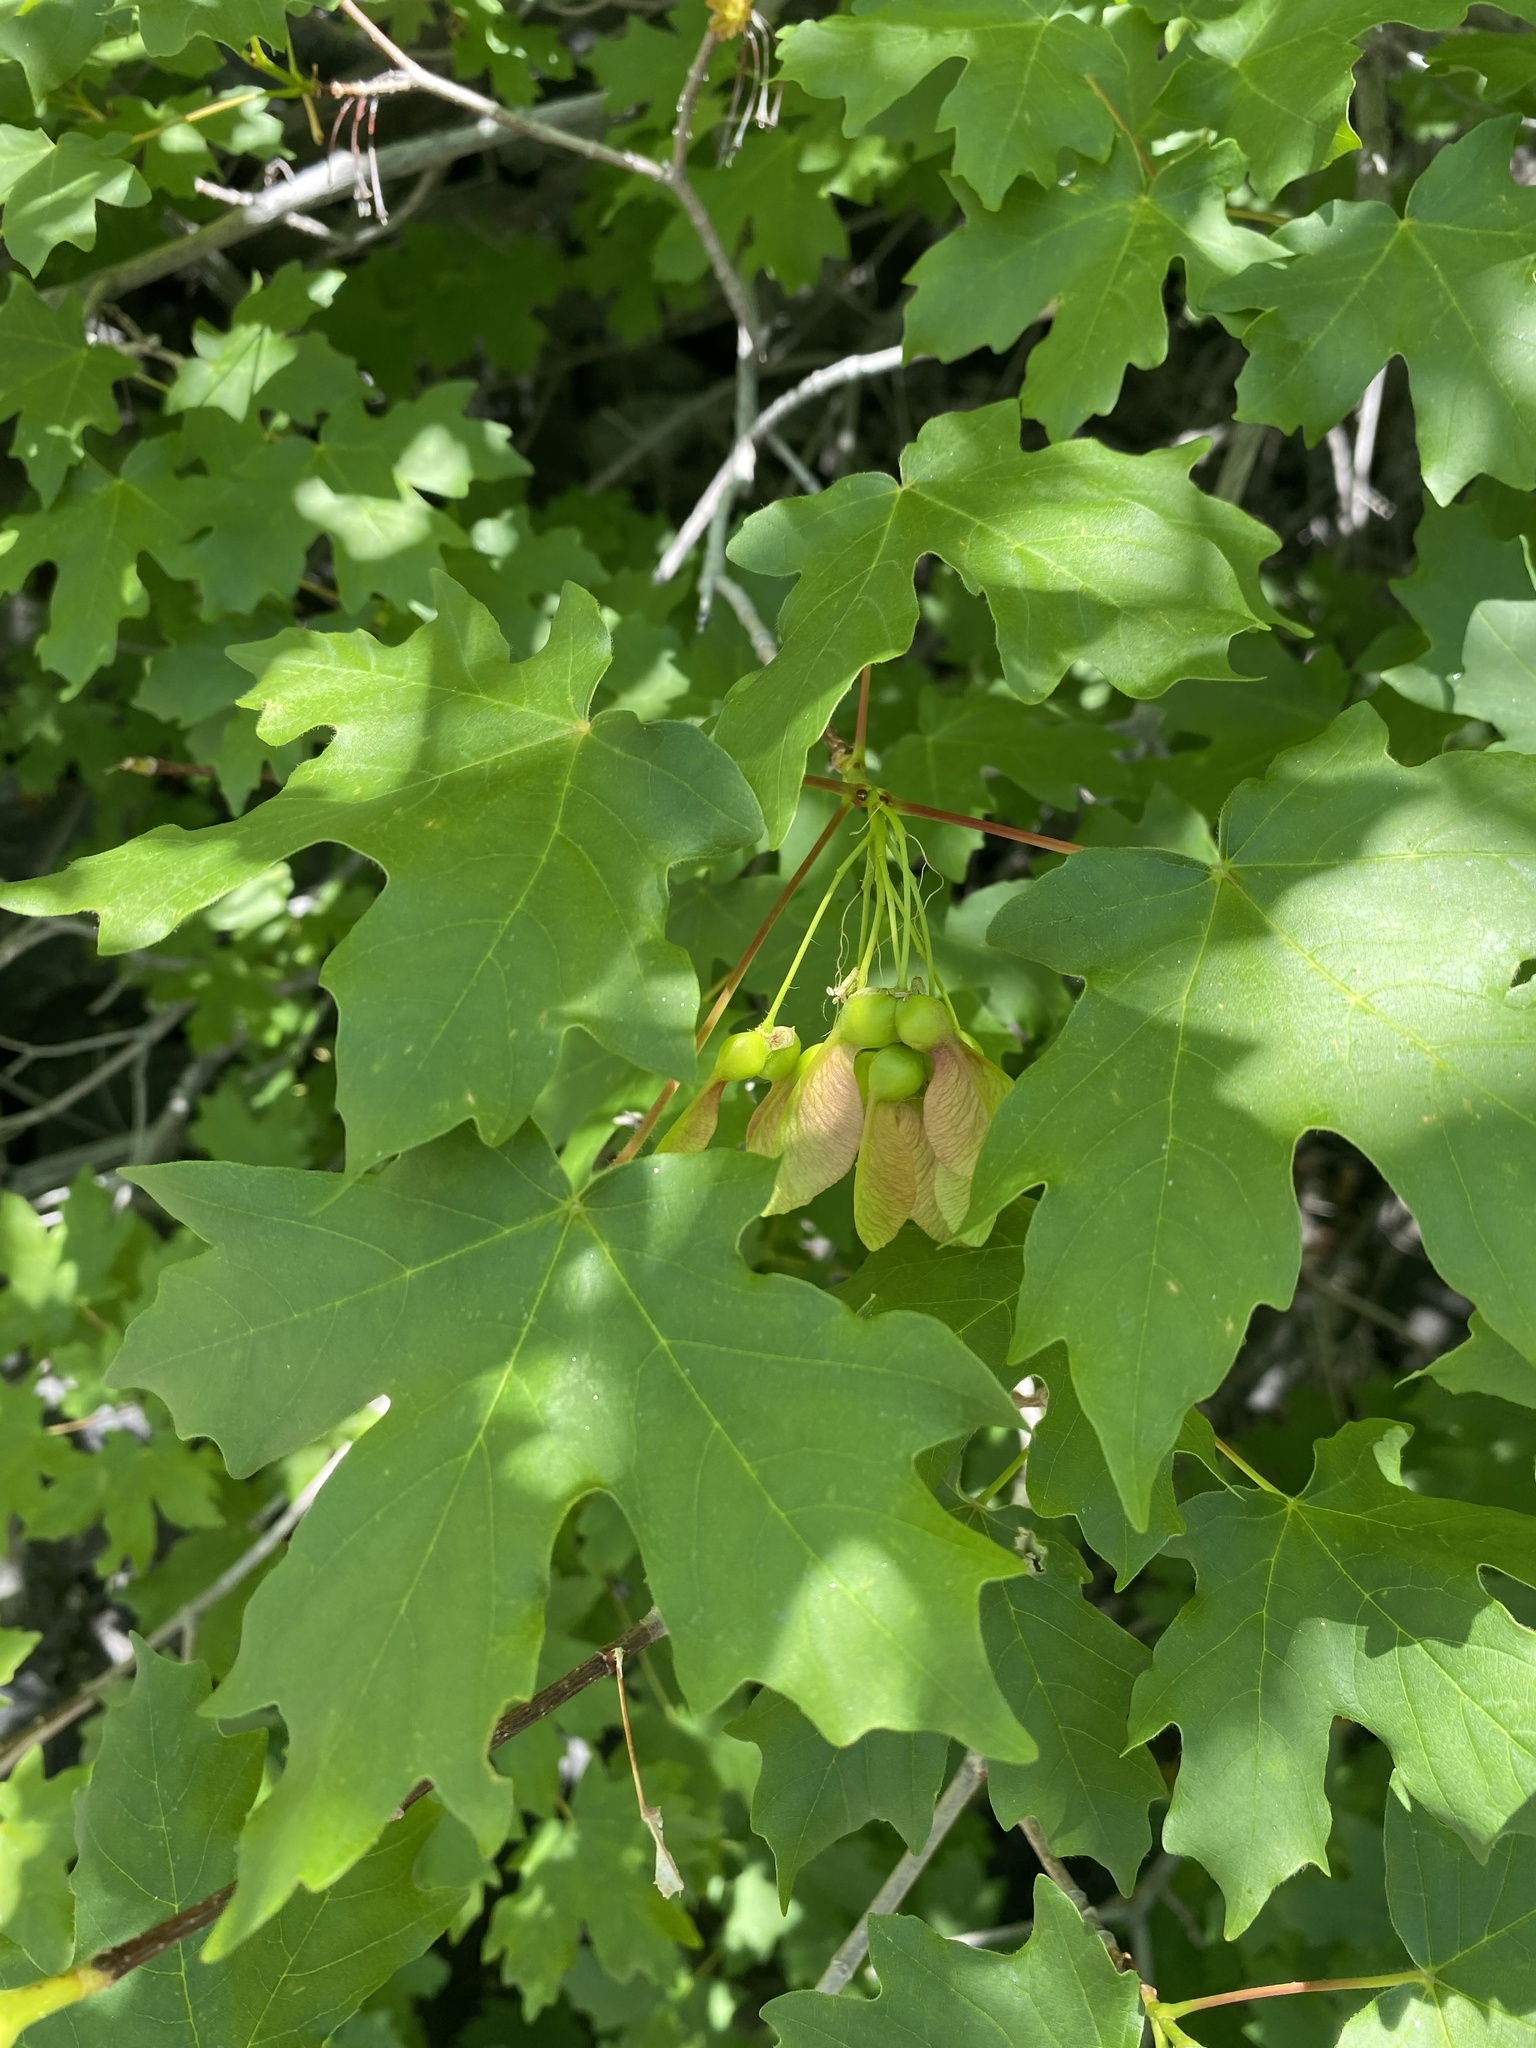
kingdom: Plantae
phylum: Tracheophyta
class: Magnoliopsida
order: Sapindales
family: Sapindaceae
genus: Acer
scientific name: Acer grandidentatum
